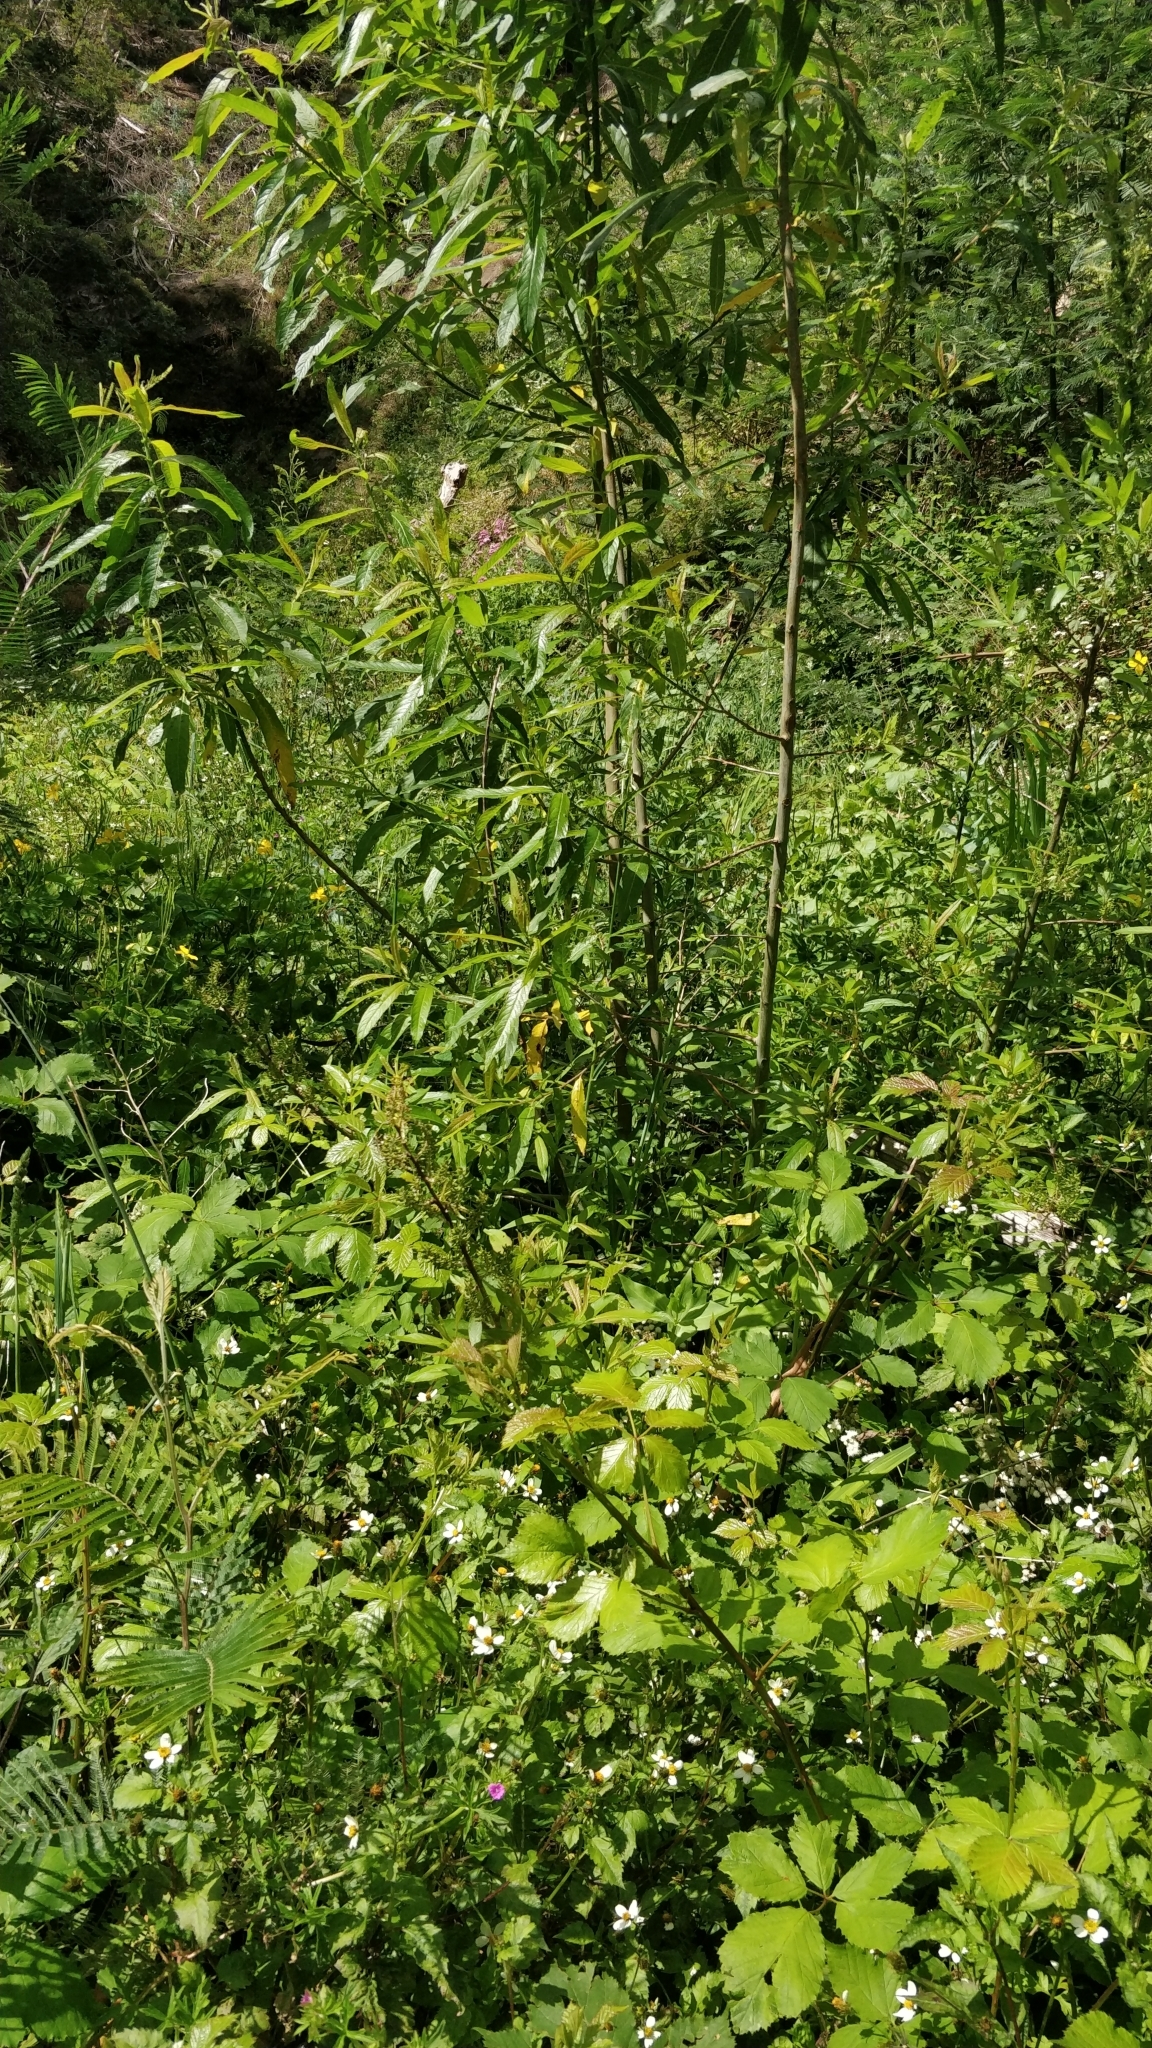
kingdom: Plantae
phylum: Tracheophyta
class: Magnoliopsida
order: Malpighiales
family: Salicaceae
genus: Salix
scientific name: Salix canariensis
